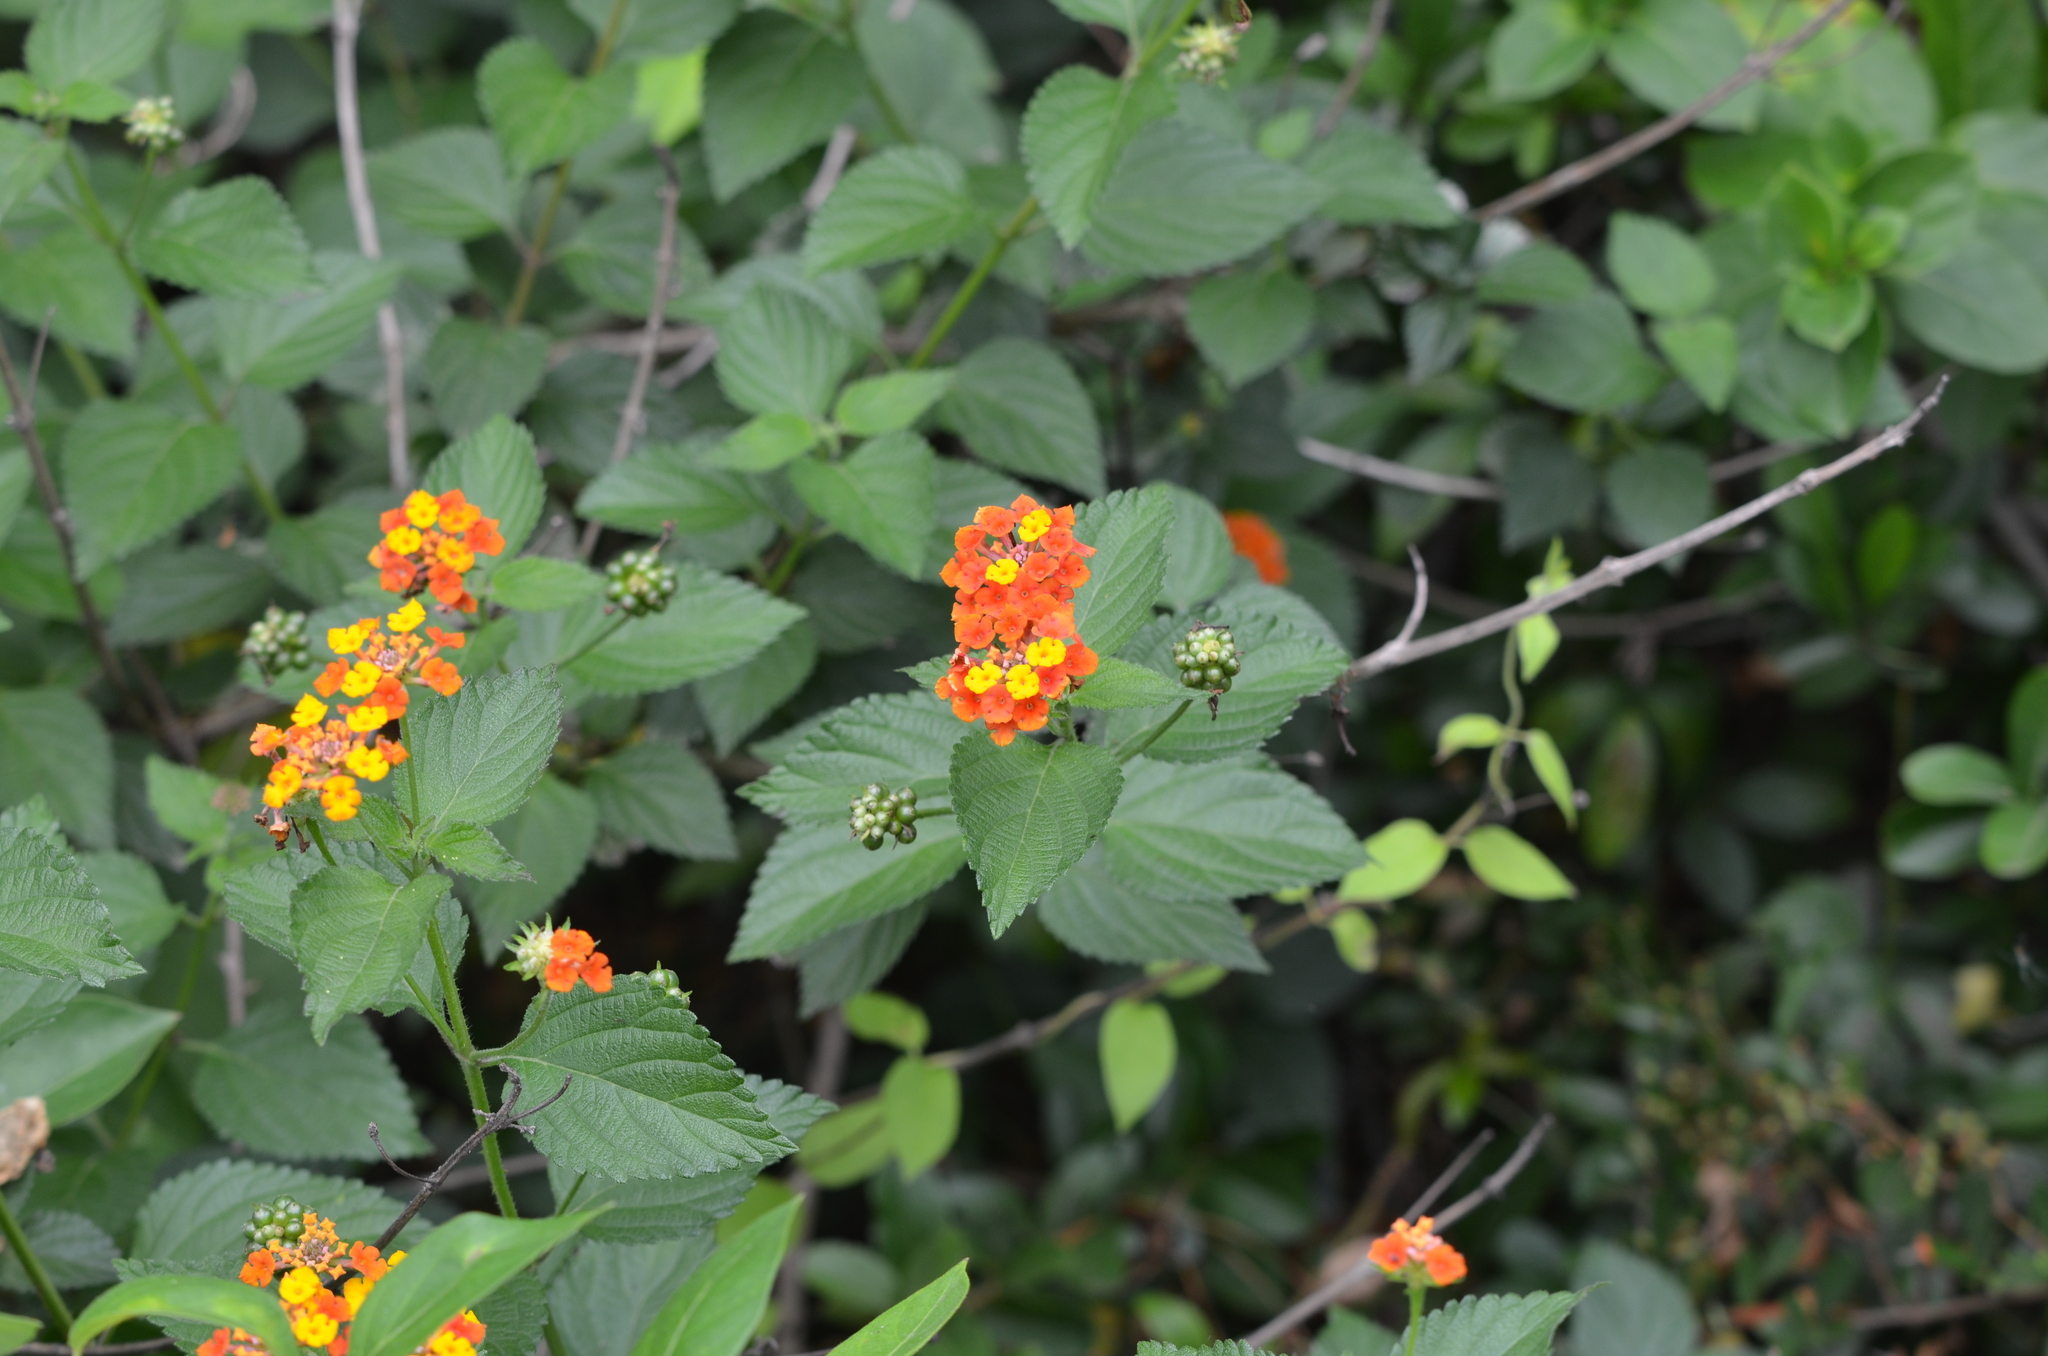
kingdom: Plantae
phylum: Tracheophyta
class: Magnoliopsida
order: Lamiales
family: Verbenaceae
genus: Lantana
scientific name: Lantana strigocamara
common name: Lantana
